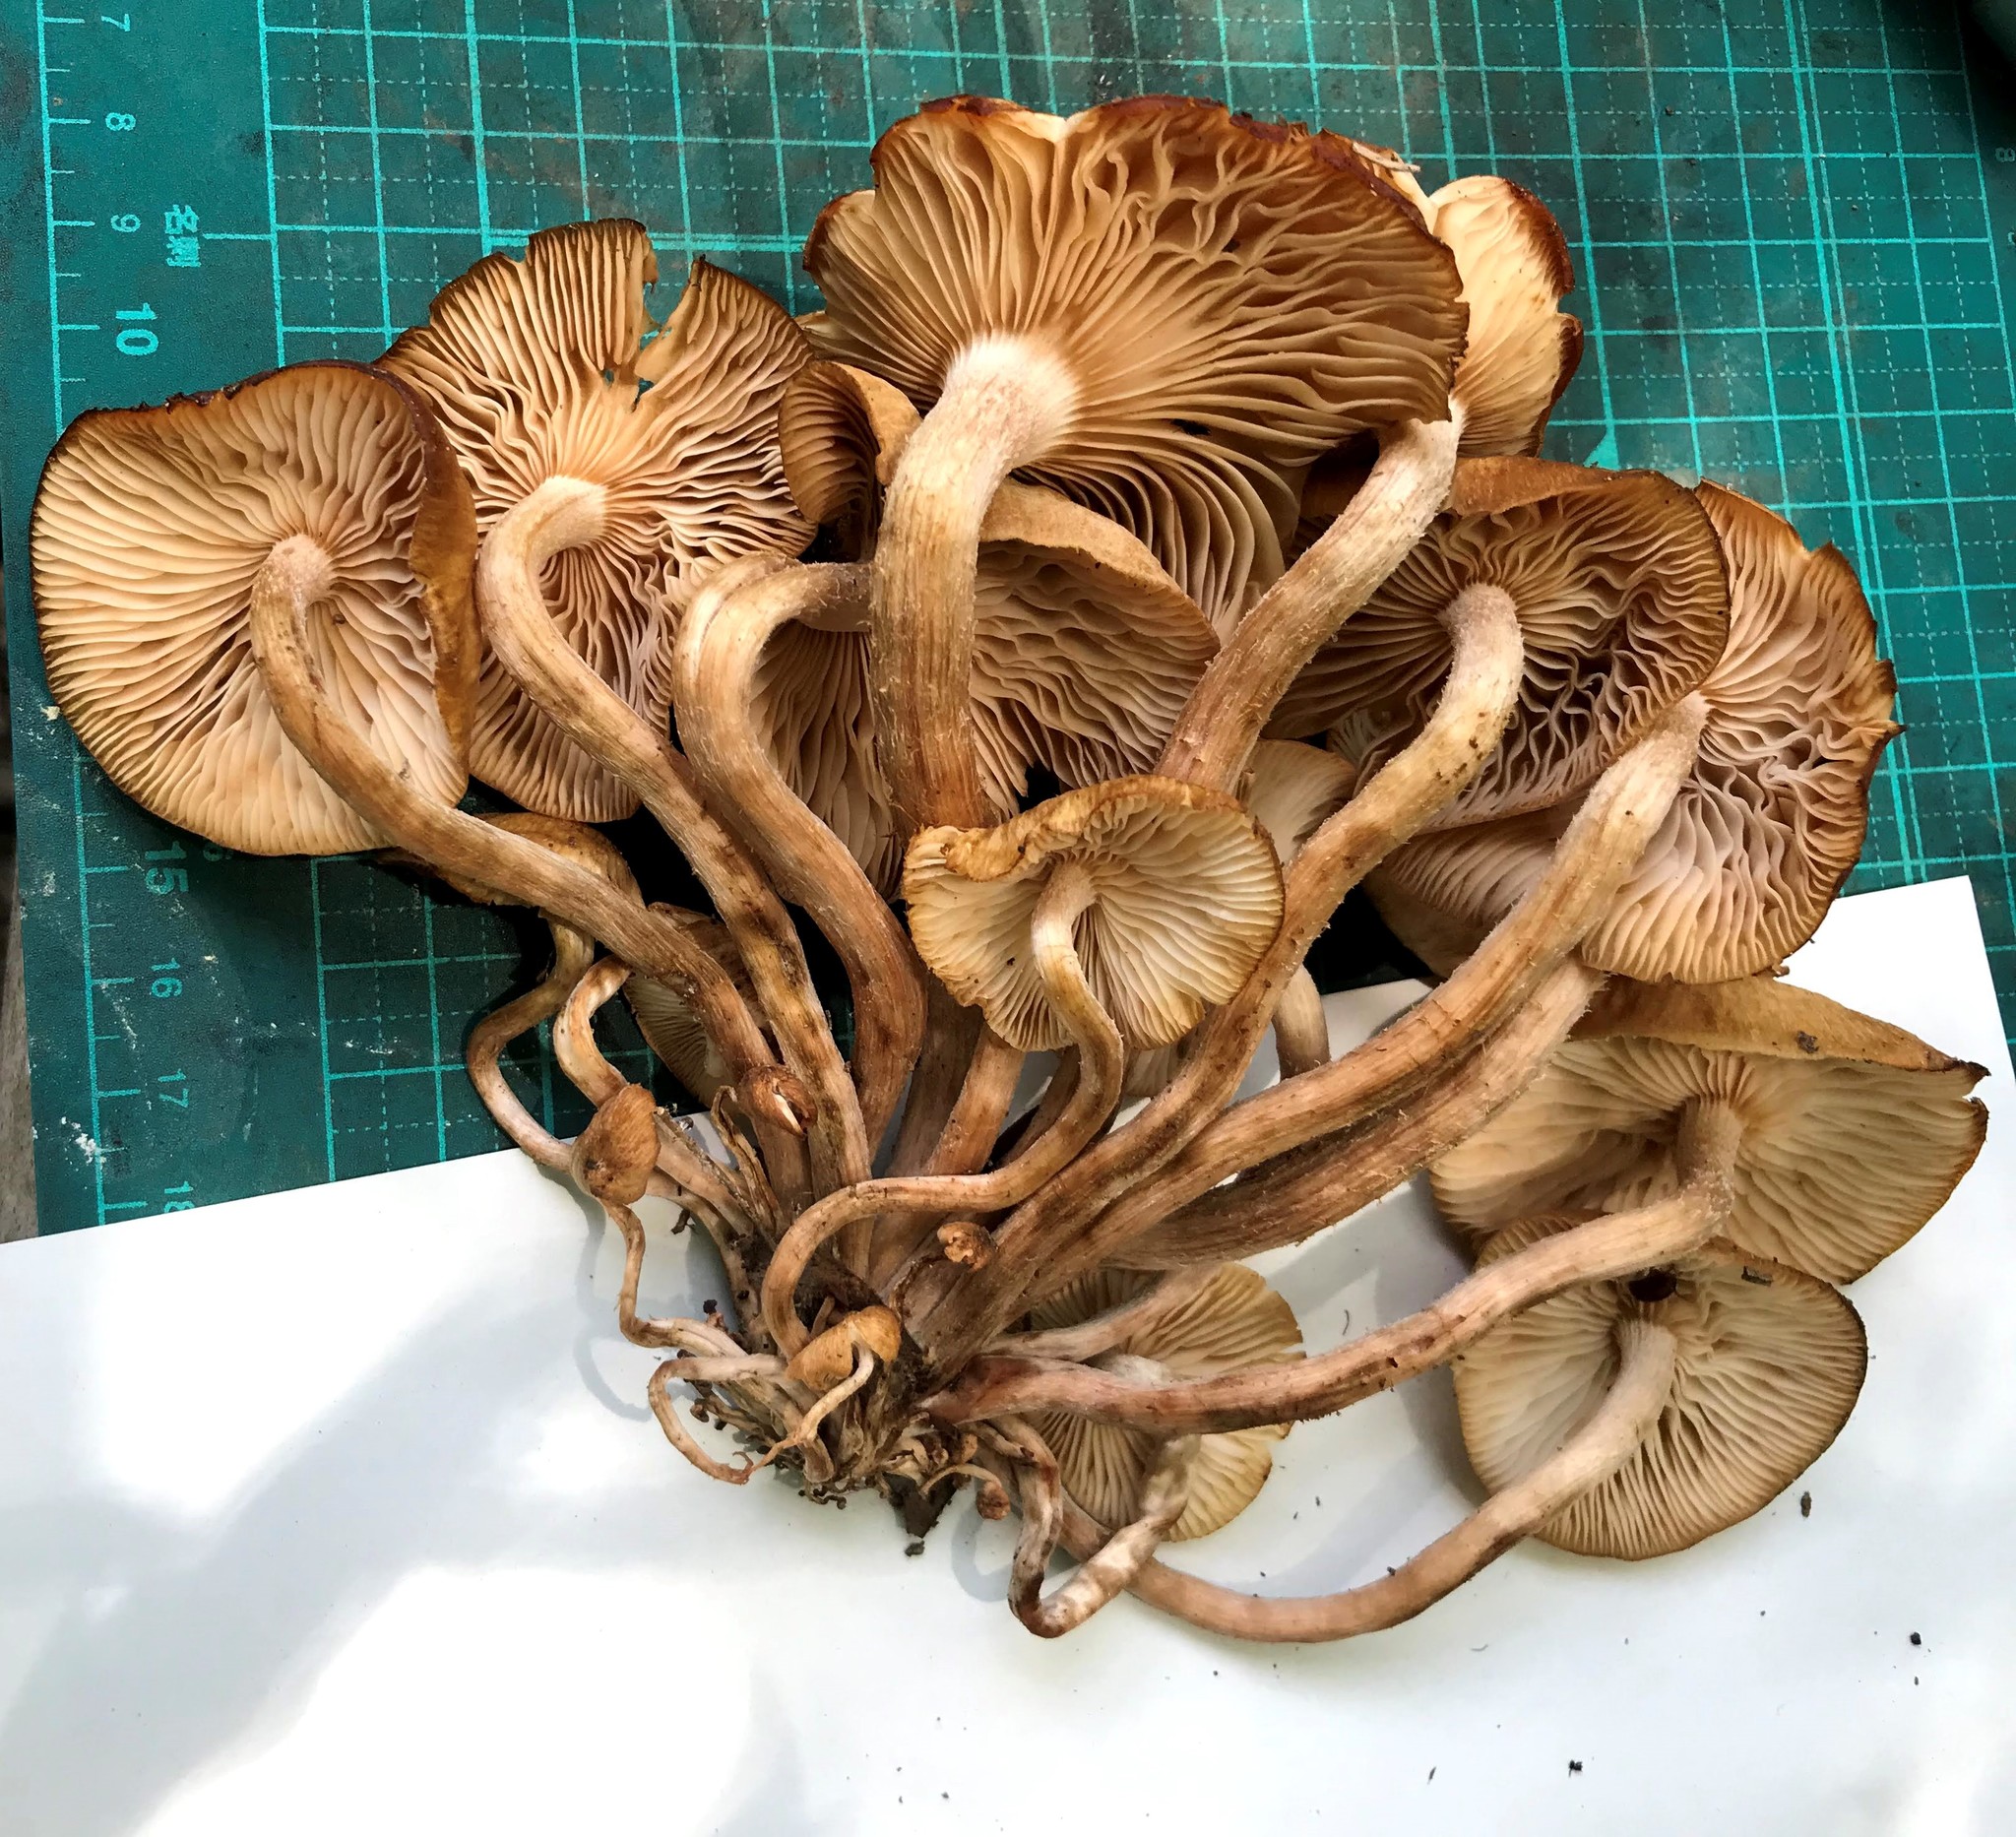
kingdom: Fungi
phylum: Basidiomycota
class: Agaricomycetes
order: Agaricales
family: Physalacriaceae
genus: Desarmillaria
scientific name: Desarmillaria tabescens
